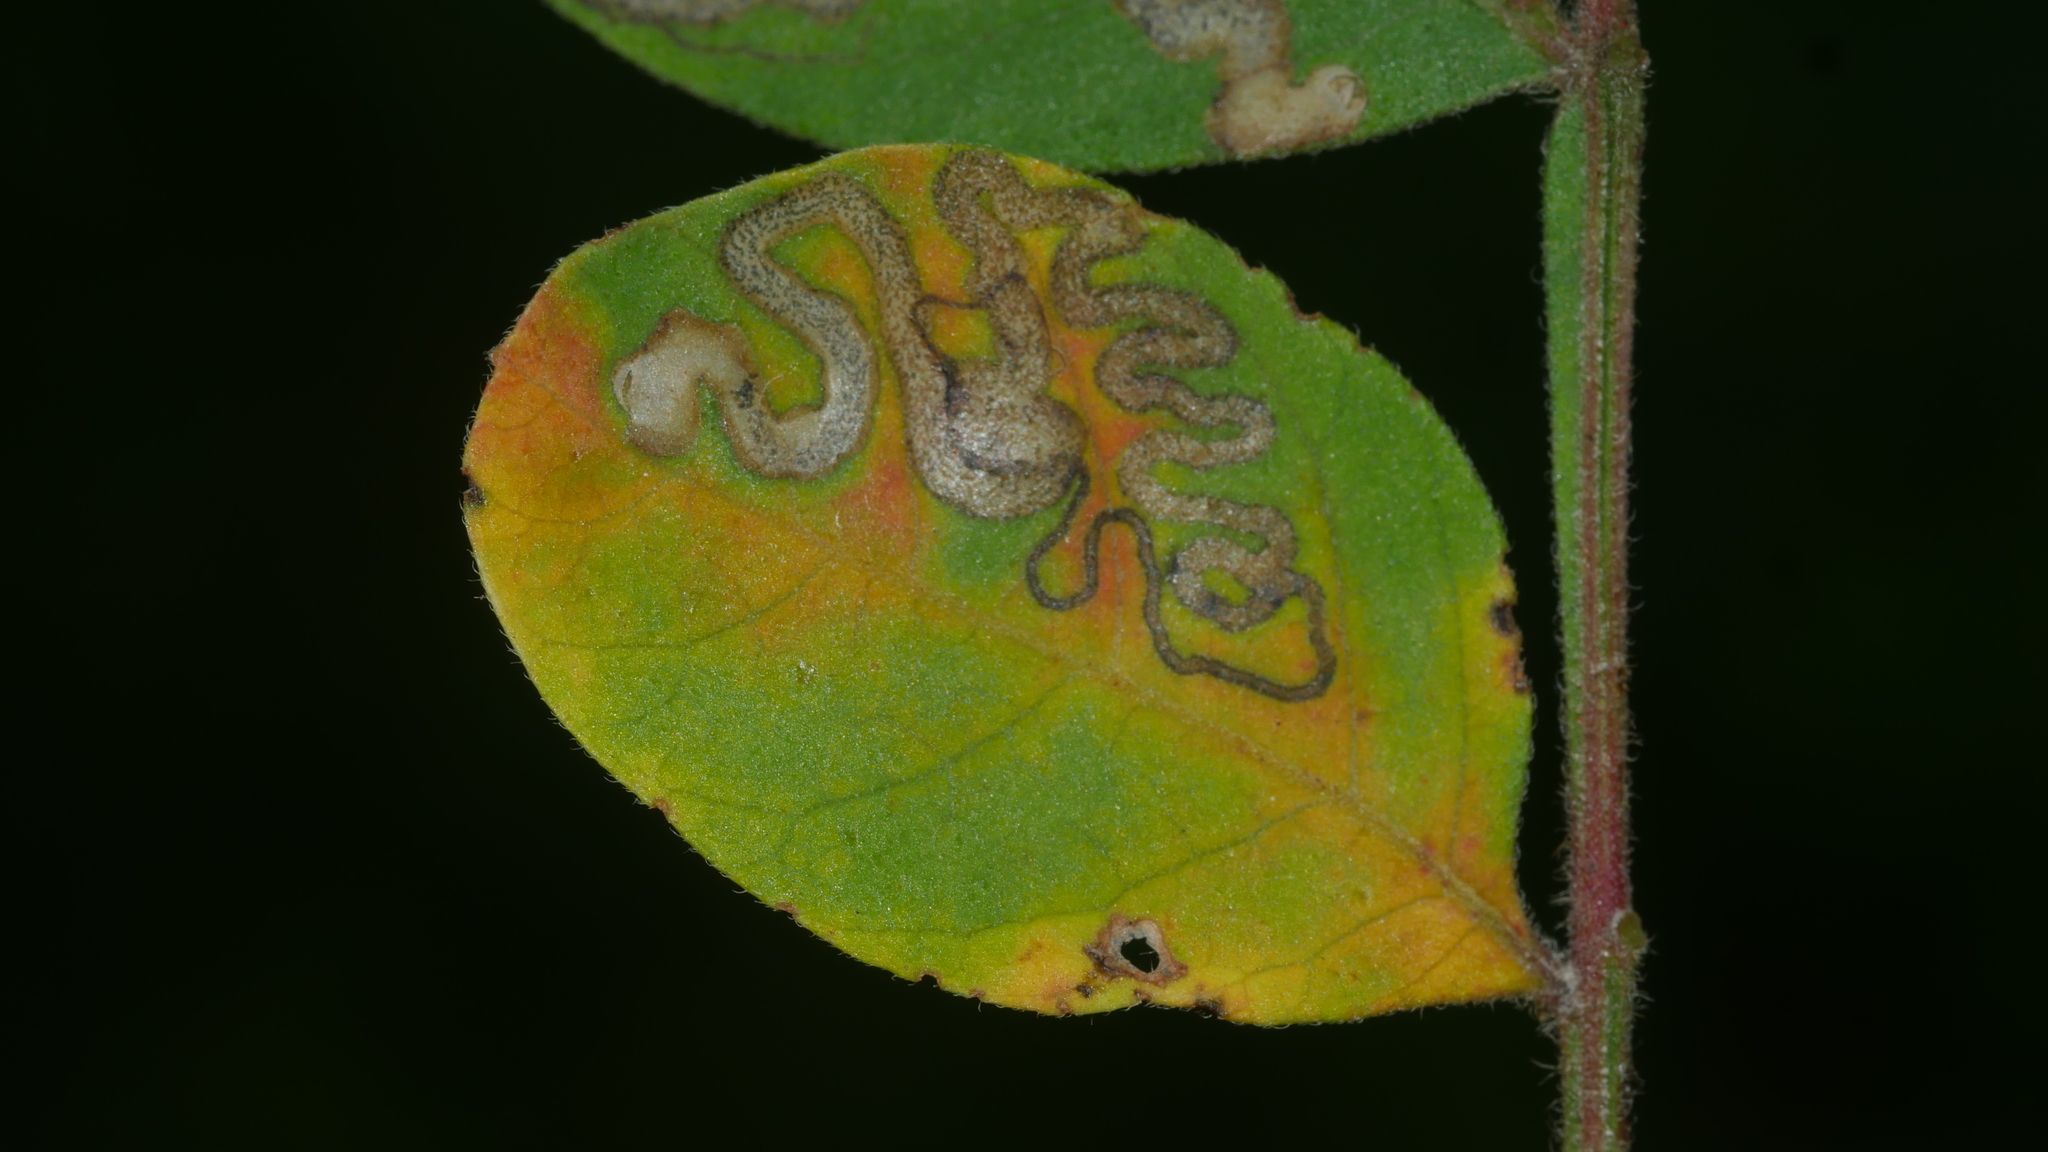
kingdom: Animalia
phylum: Arthropoda
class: Insecta
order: Lepidoptera
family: Nepticulidae
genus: Stigmella
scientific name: Stigmella intermedia
